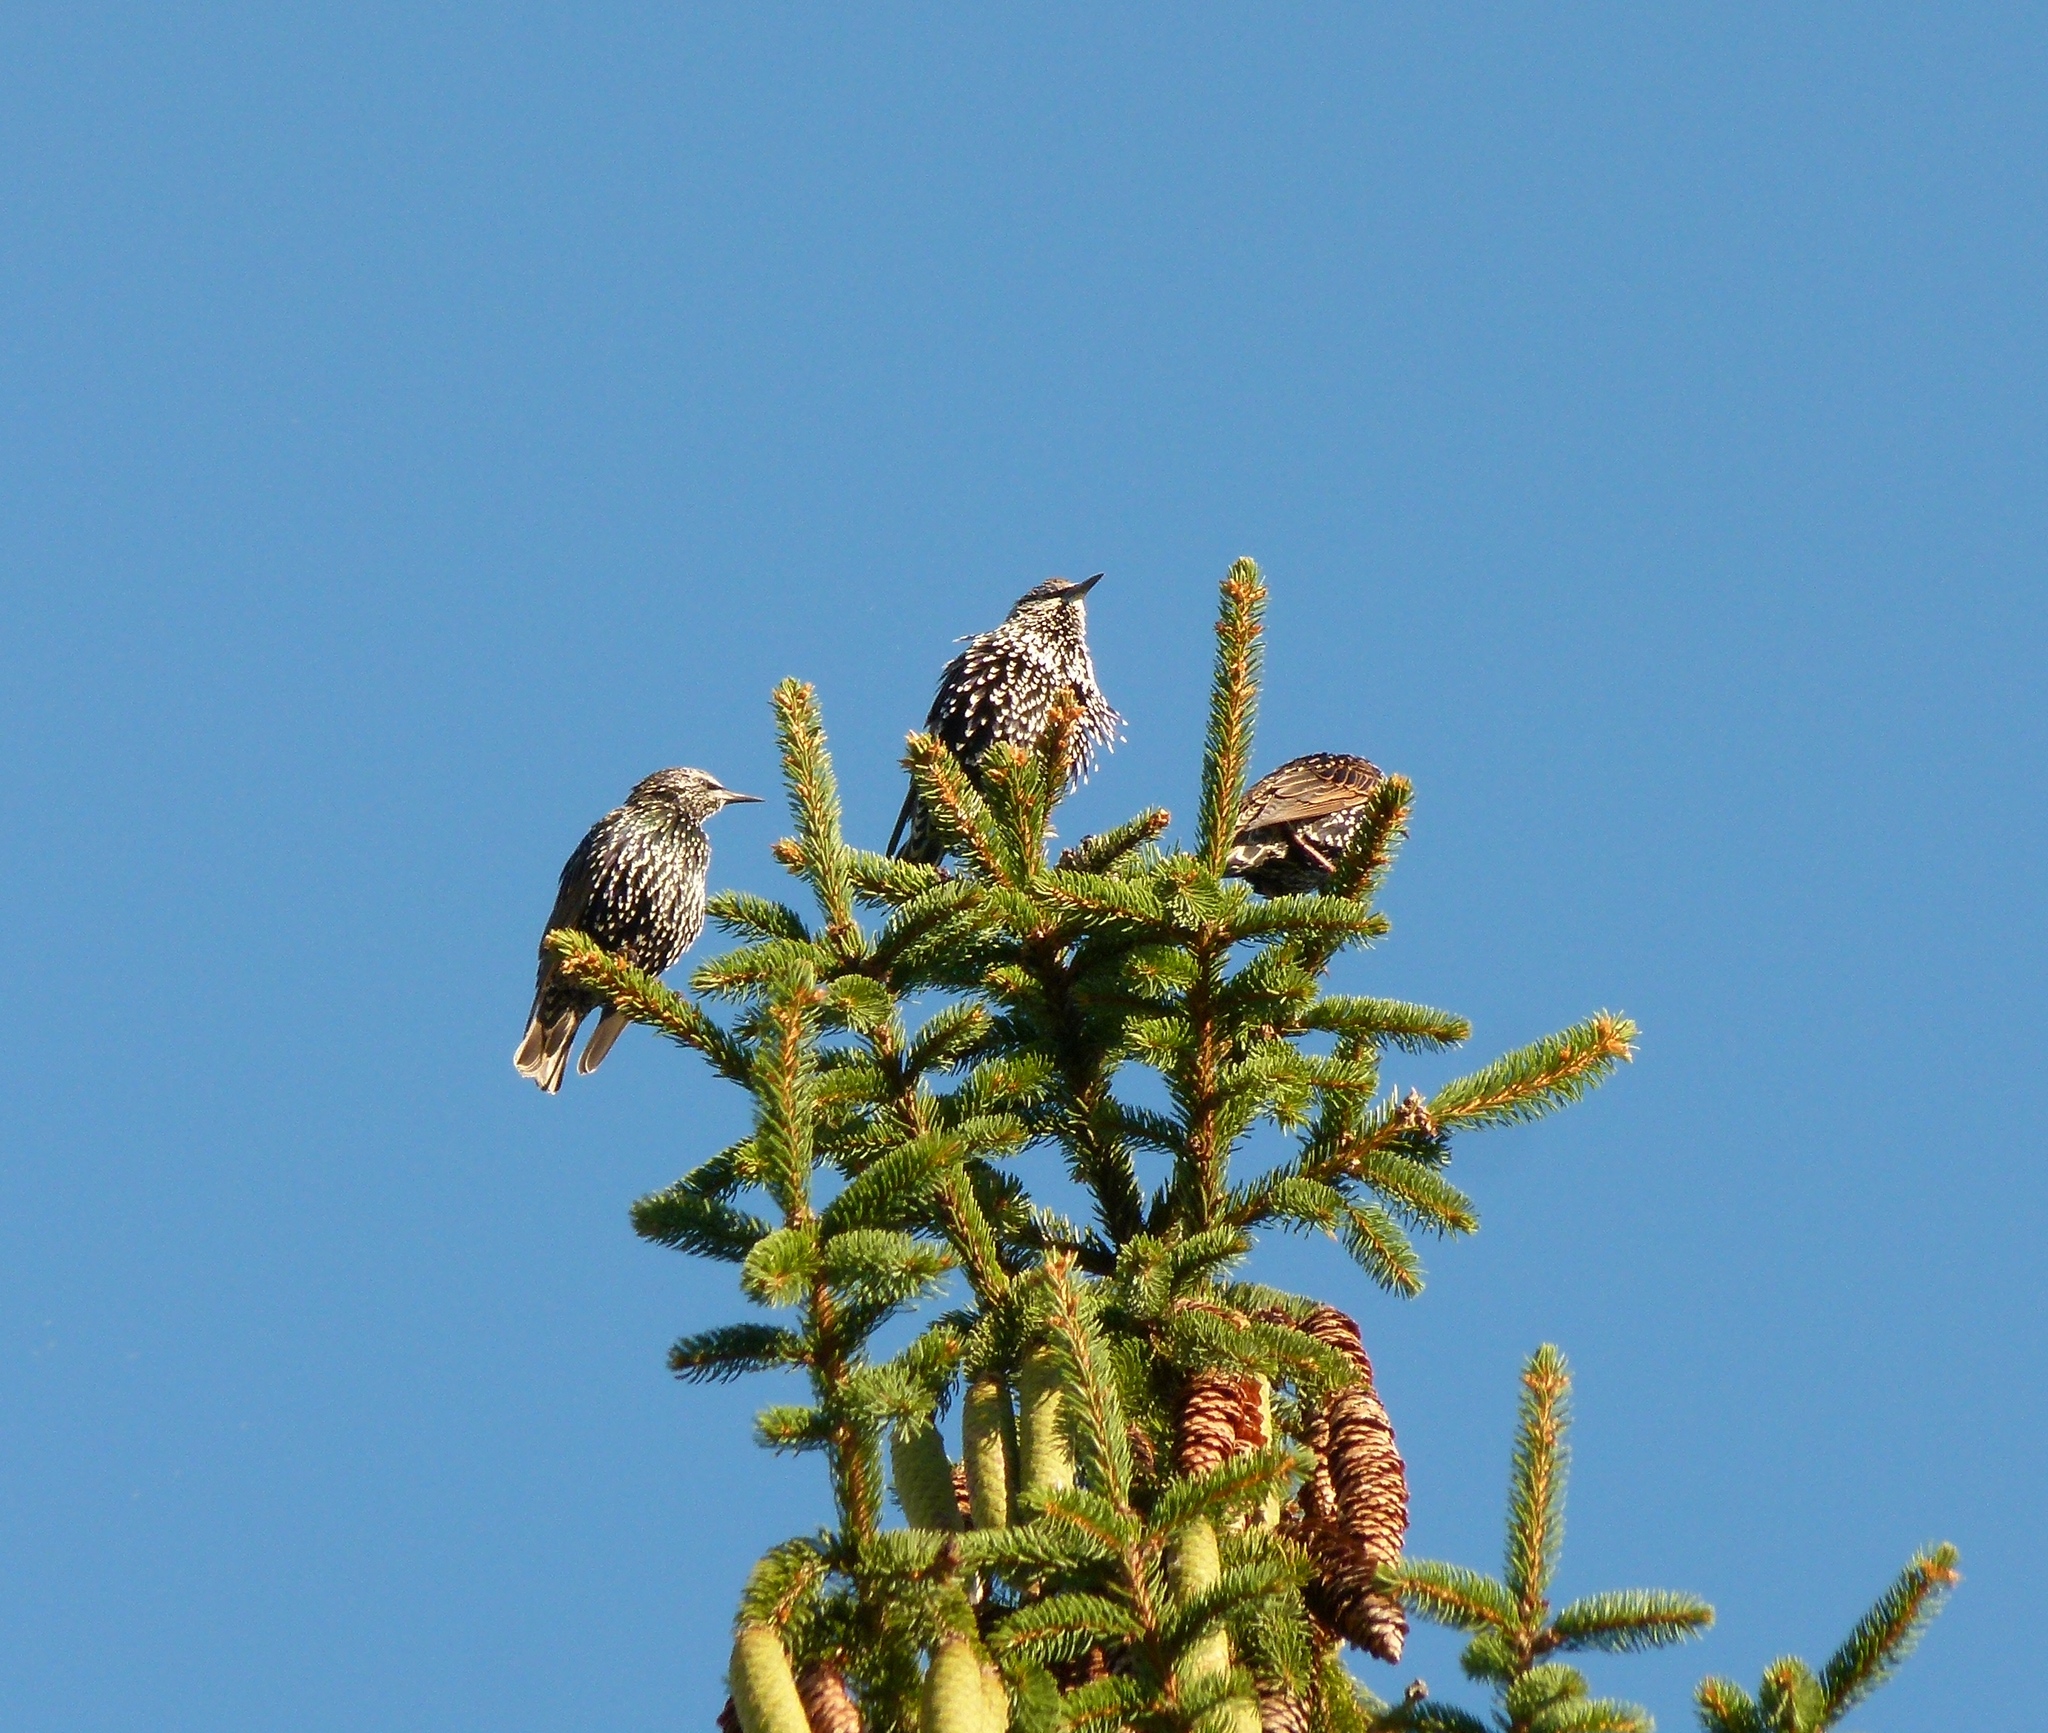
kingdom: Animalia
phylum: Chordata
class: Aves
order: Passeriformes
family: Sturnidae
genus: Sturnus
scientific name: Sturnus vulgaris
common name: Common starling
